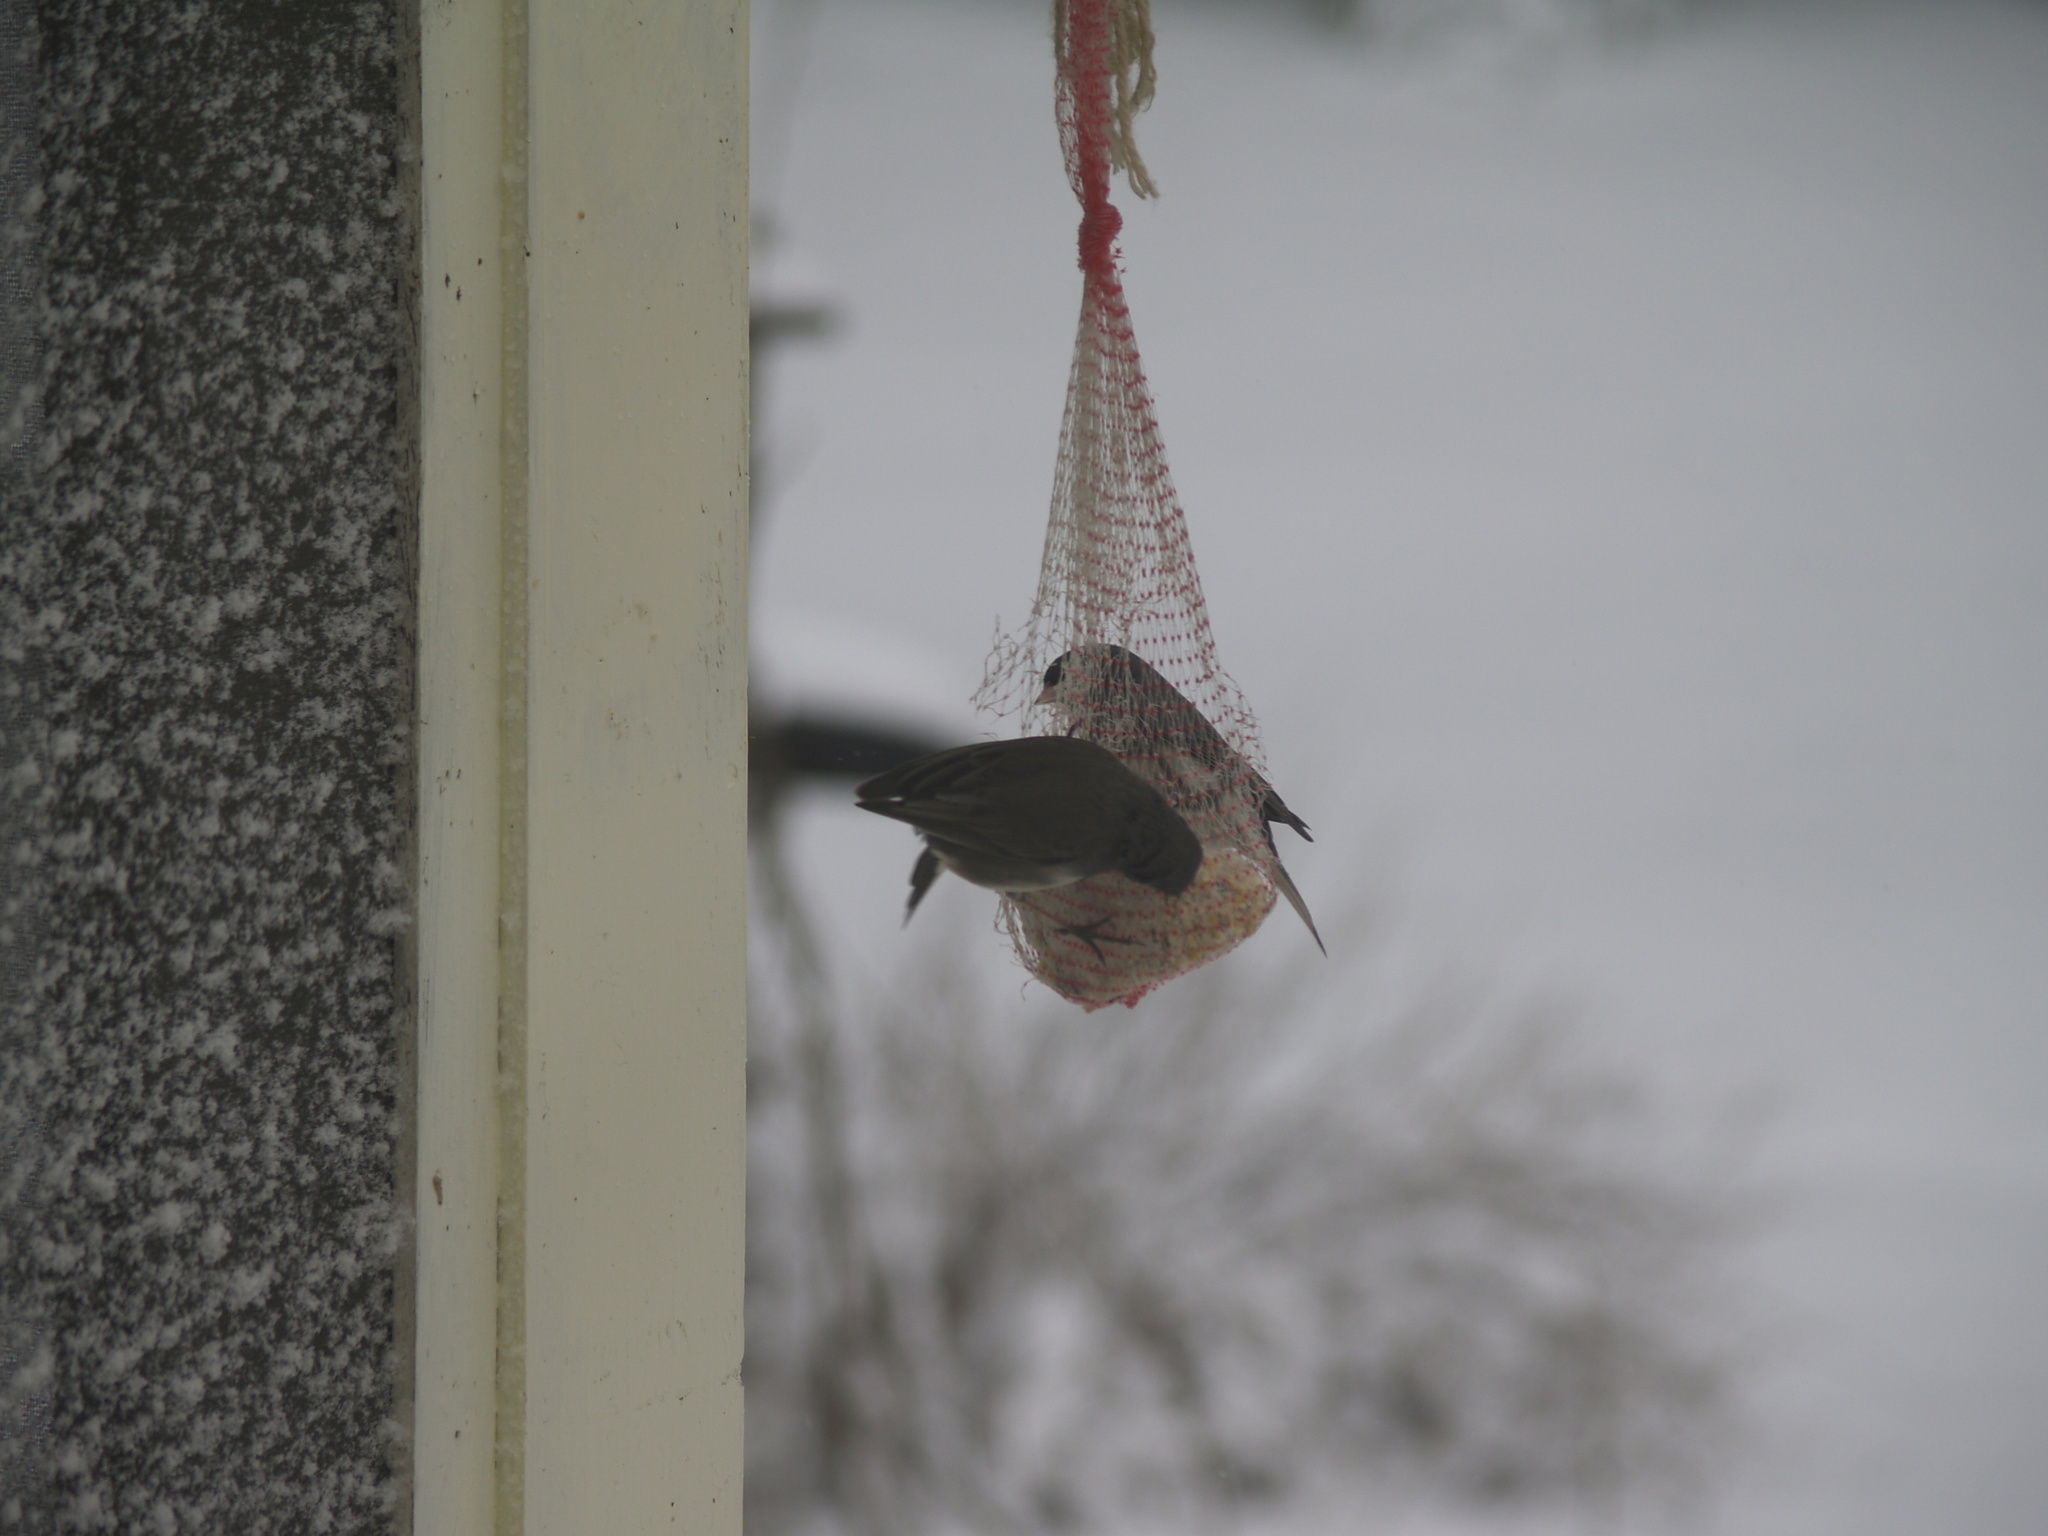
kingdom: Animalia
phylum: Chordata
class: Aves
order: Passeriformes
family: Passerellidae
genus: Junco
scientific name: Junco hyemalis
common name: Dark-eyed junco
